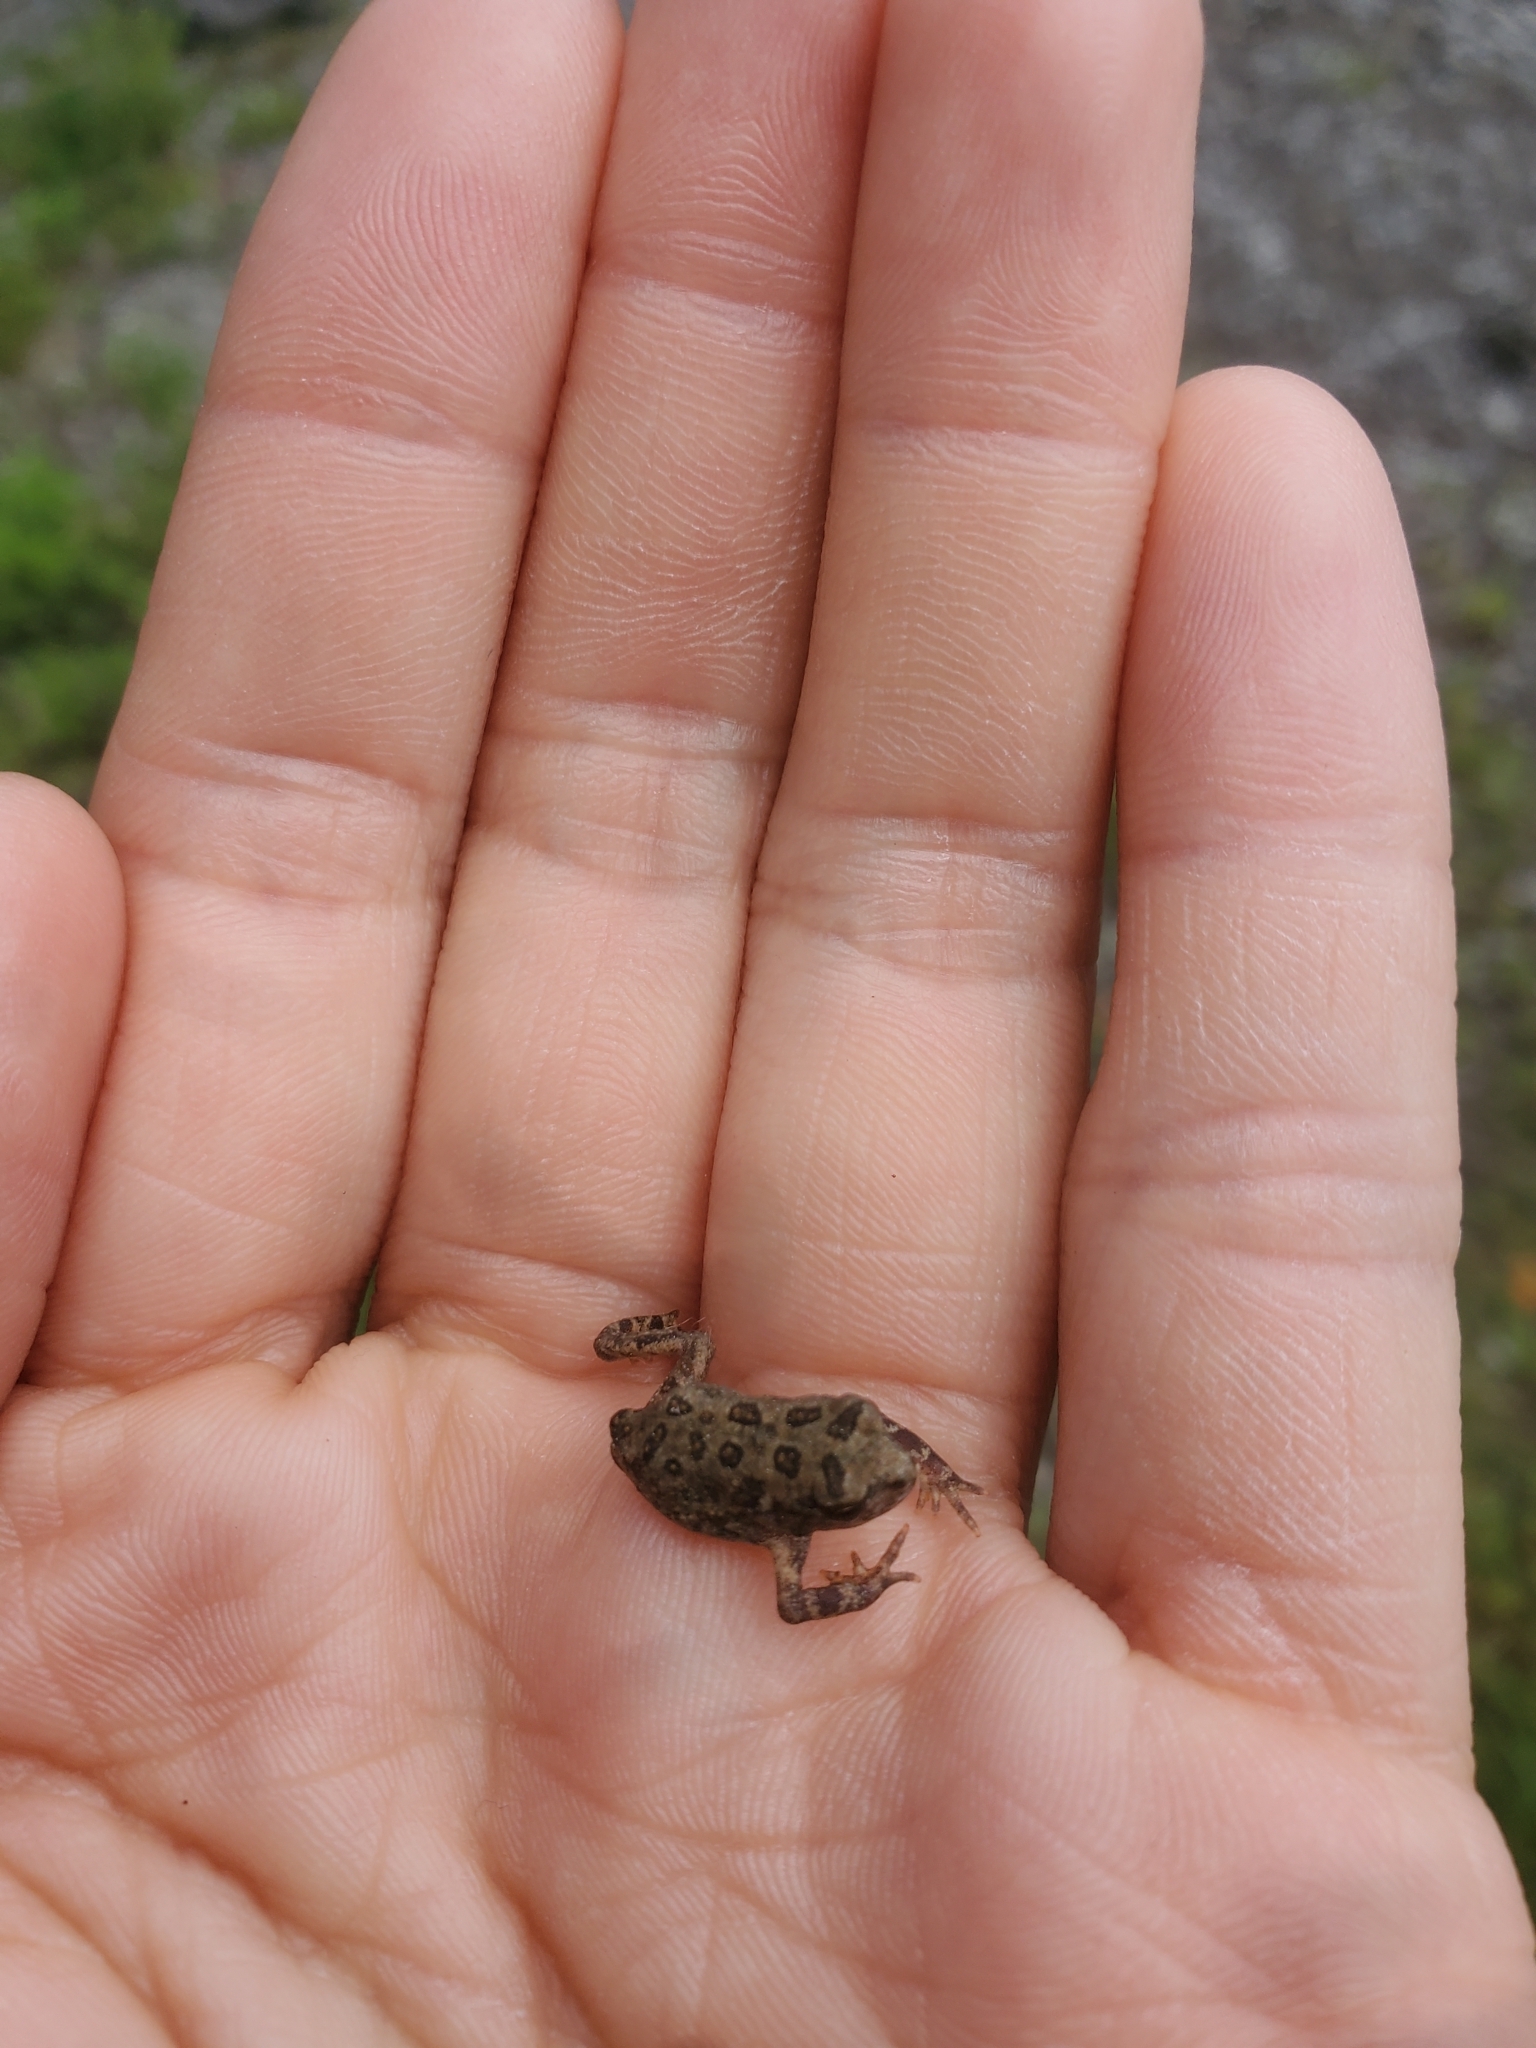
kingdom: Animalia
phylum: Chordata
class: Amphibia
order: Anura
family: Bufonidae
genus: Anaxyrus
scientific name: Anaxyrus americanus
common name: American toad
